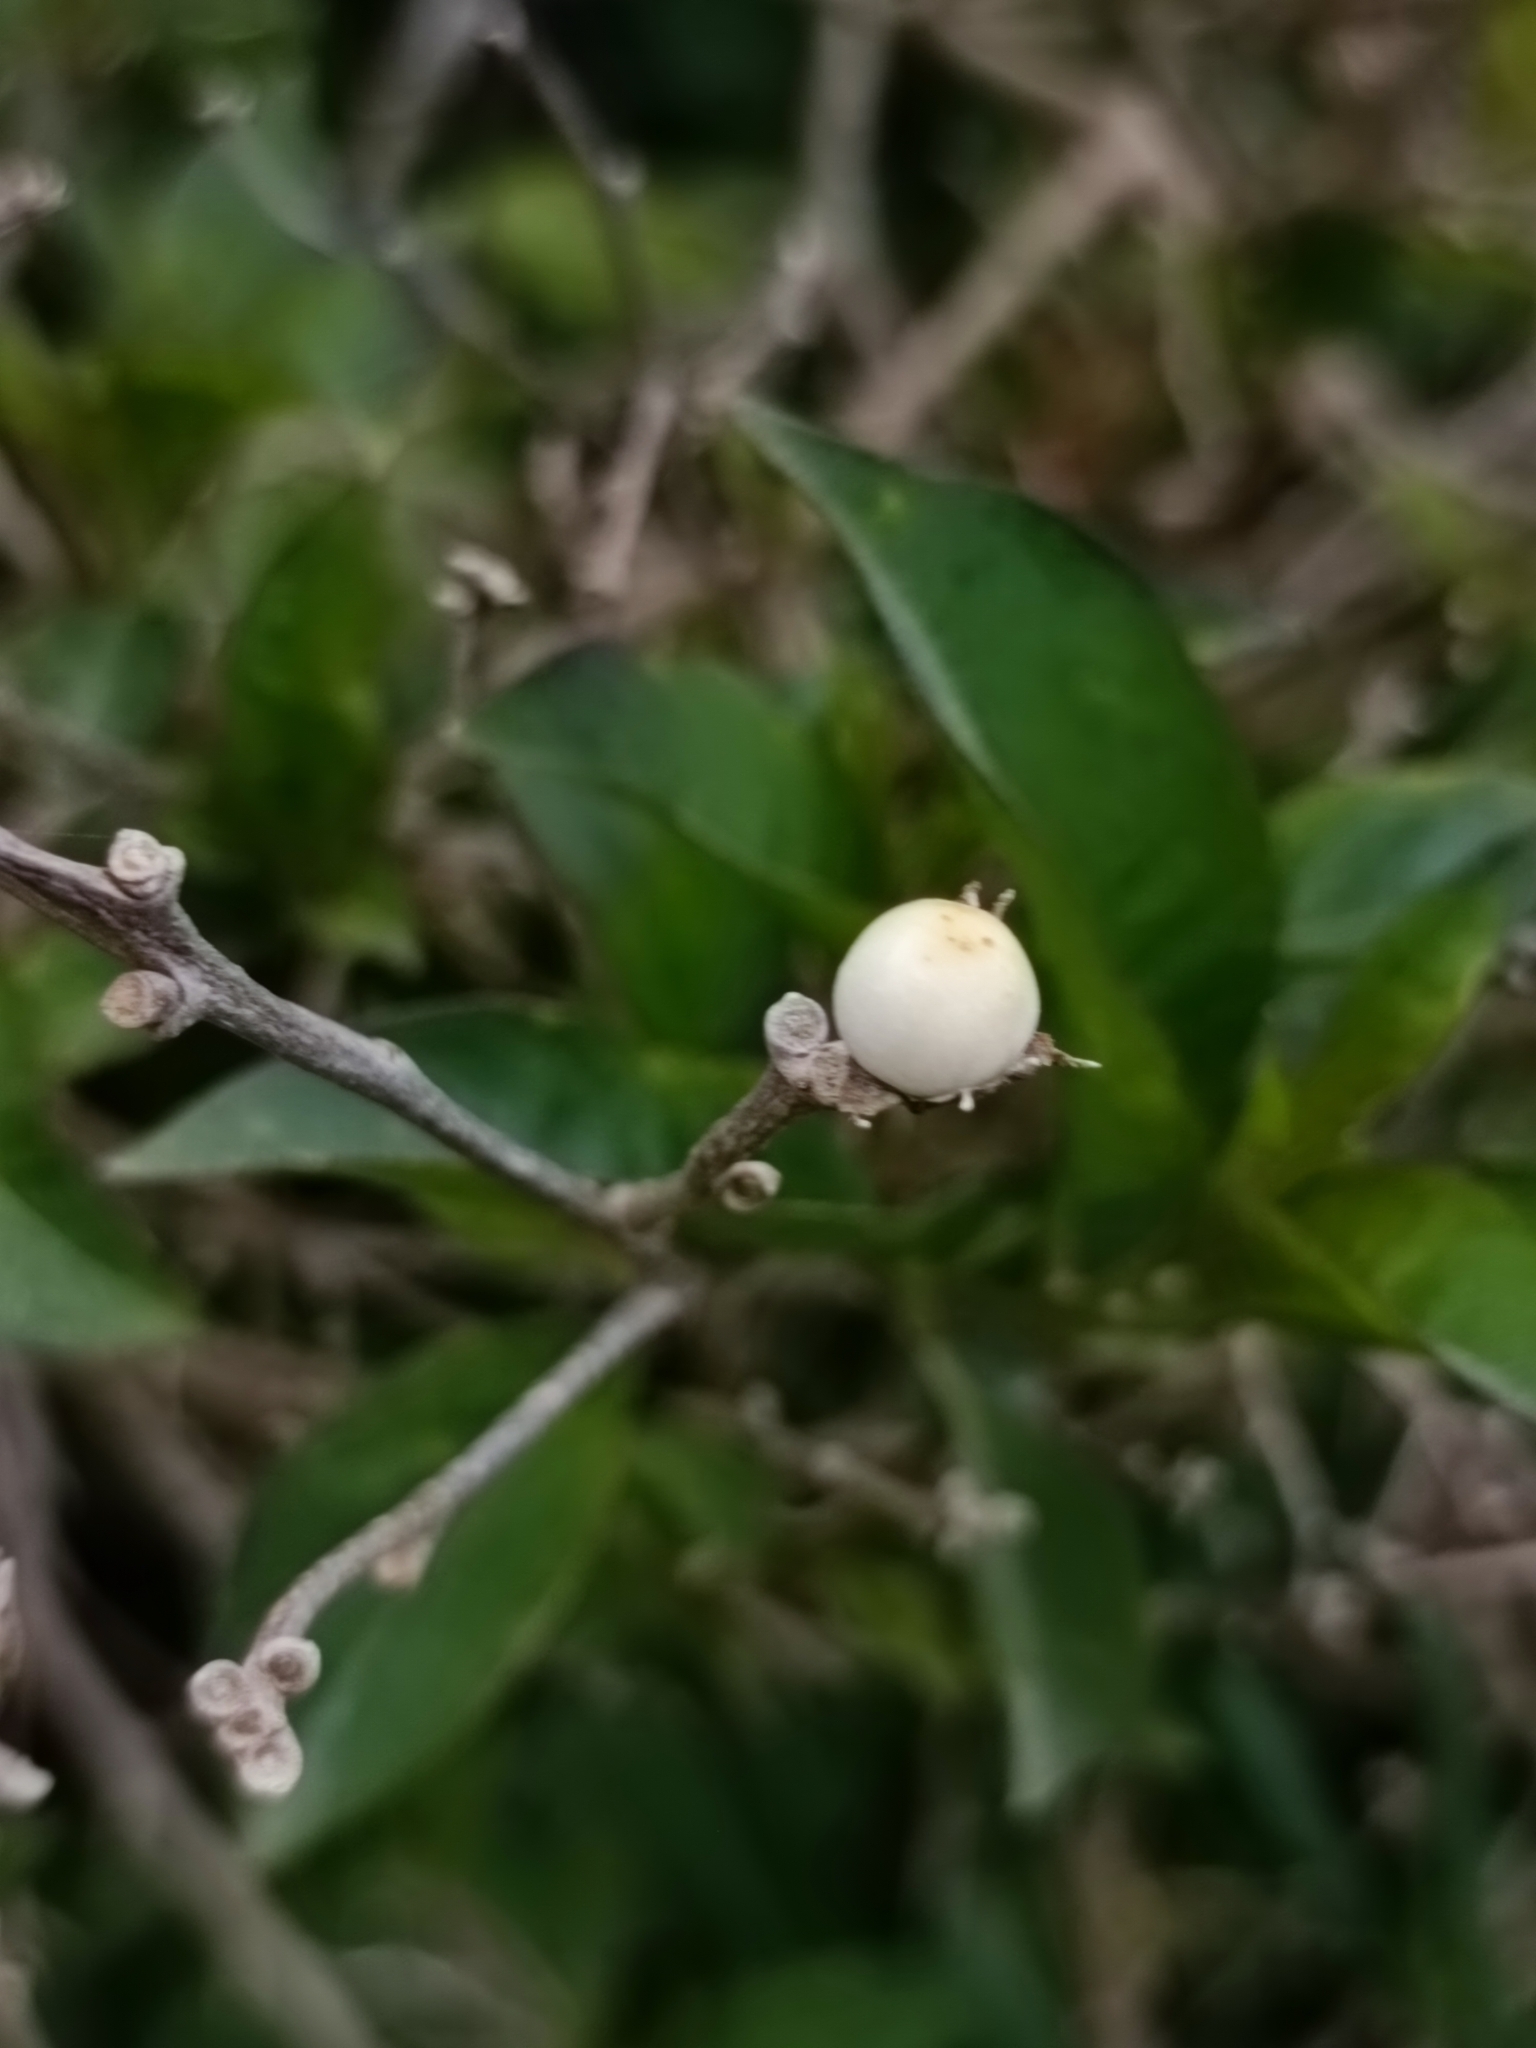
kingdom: Plantae
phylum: Tracheophyta
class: Magnoliopsida
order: Solanales
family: Solanaceae
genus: Solanum
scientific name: Solanum chenopodioides
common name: Tall nightshade
